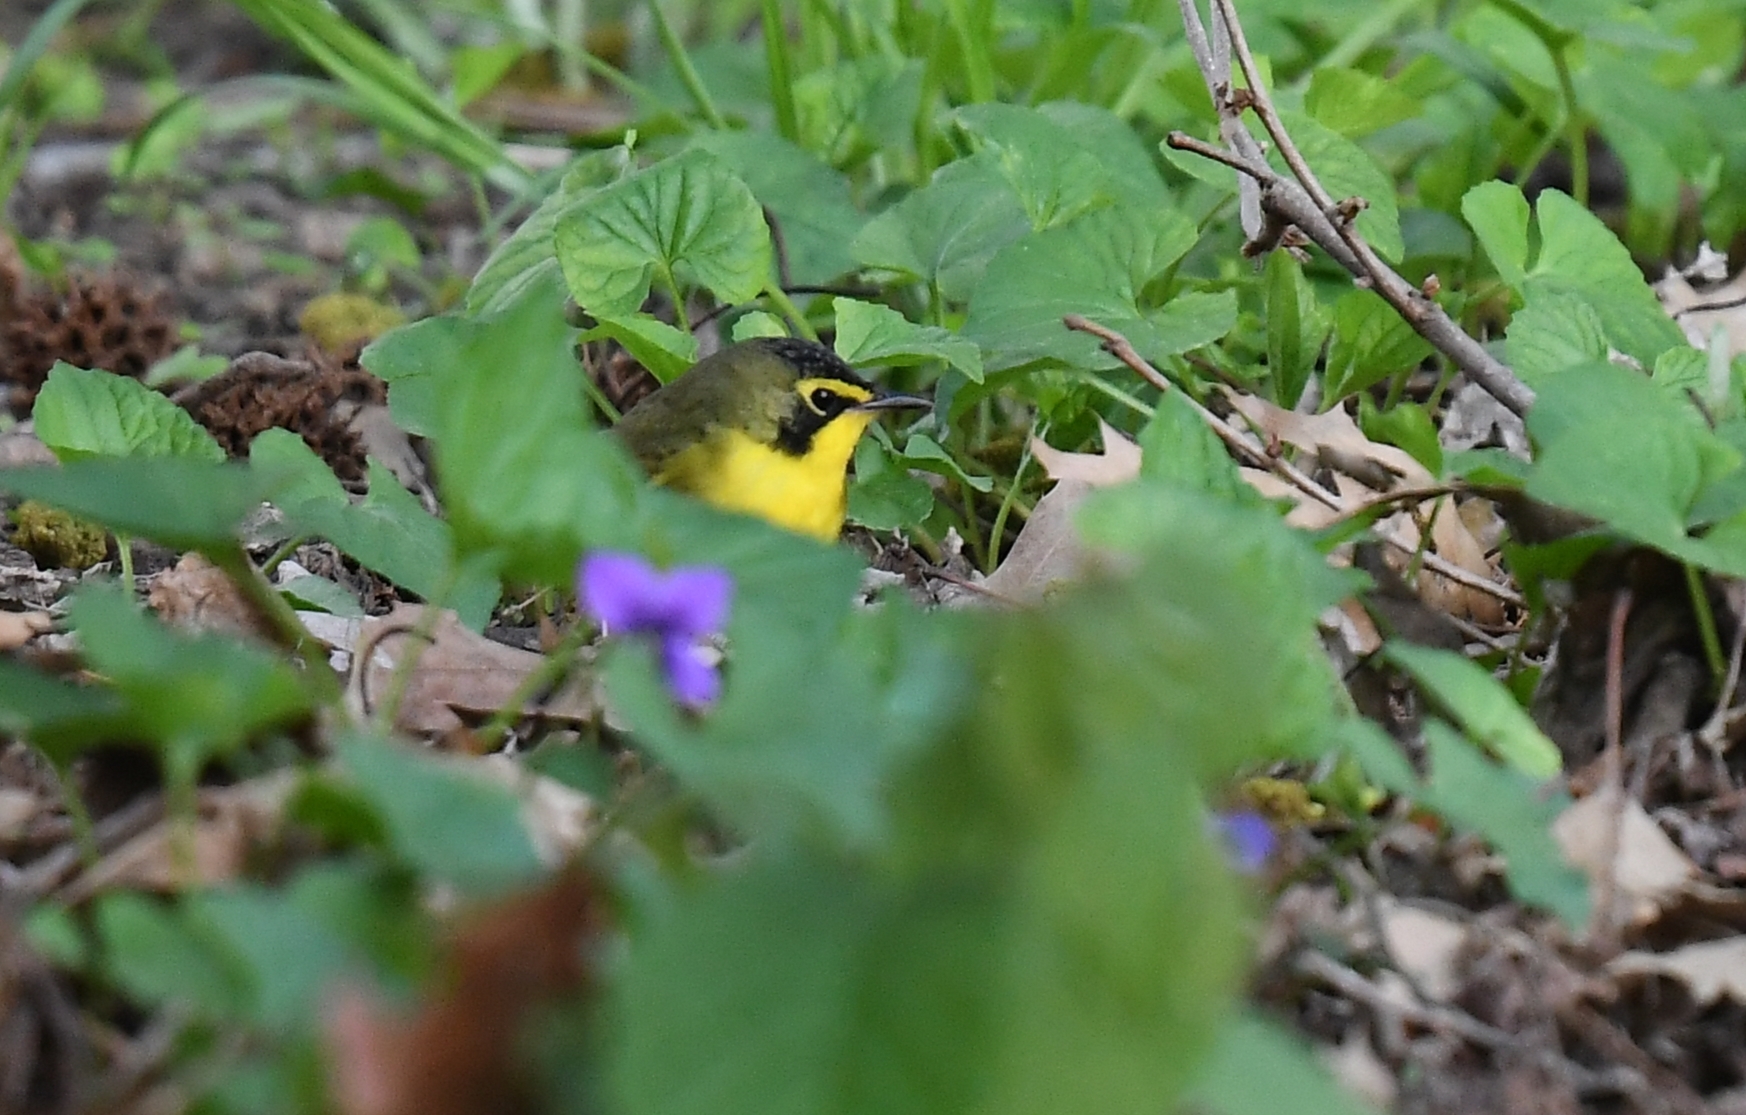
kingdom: Animalia
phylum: Chordata
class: Aves
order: Passeriformes
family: Parulidae
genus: Geothlypis
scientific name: Geothlypis formosa
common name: Kentucky warbler
